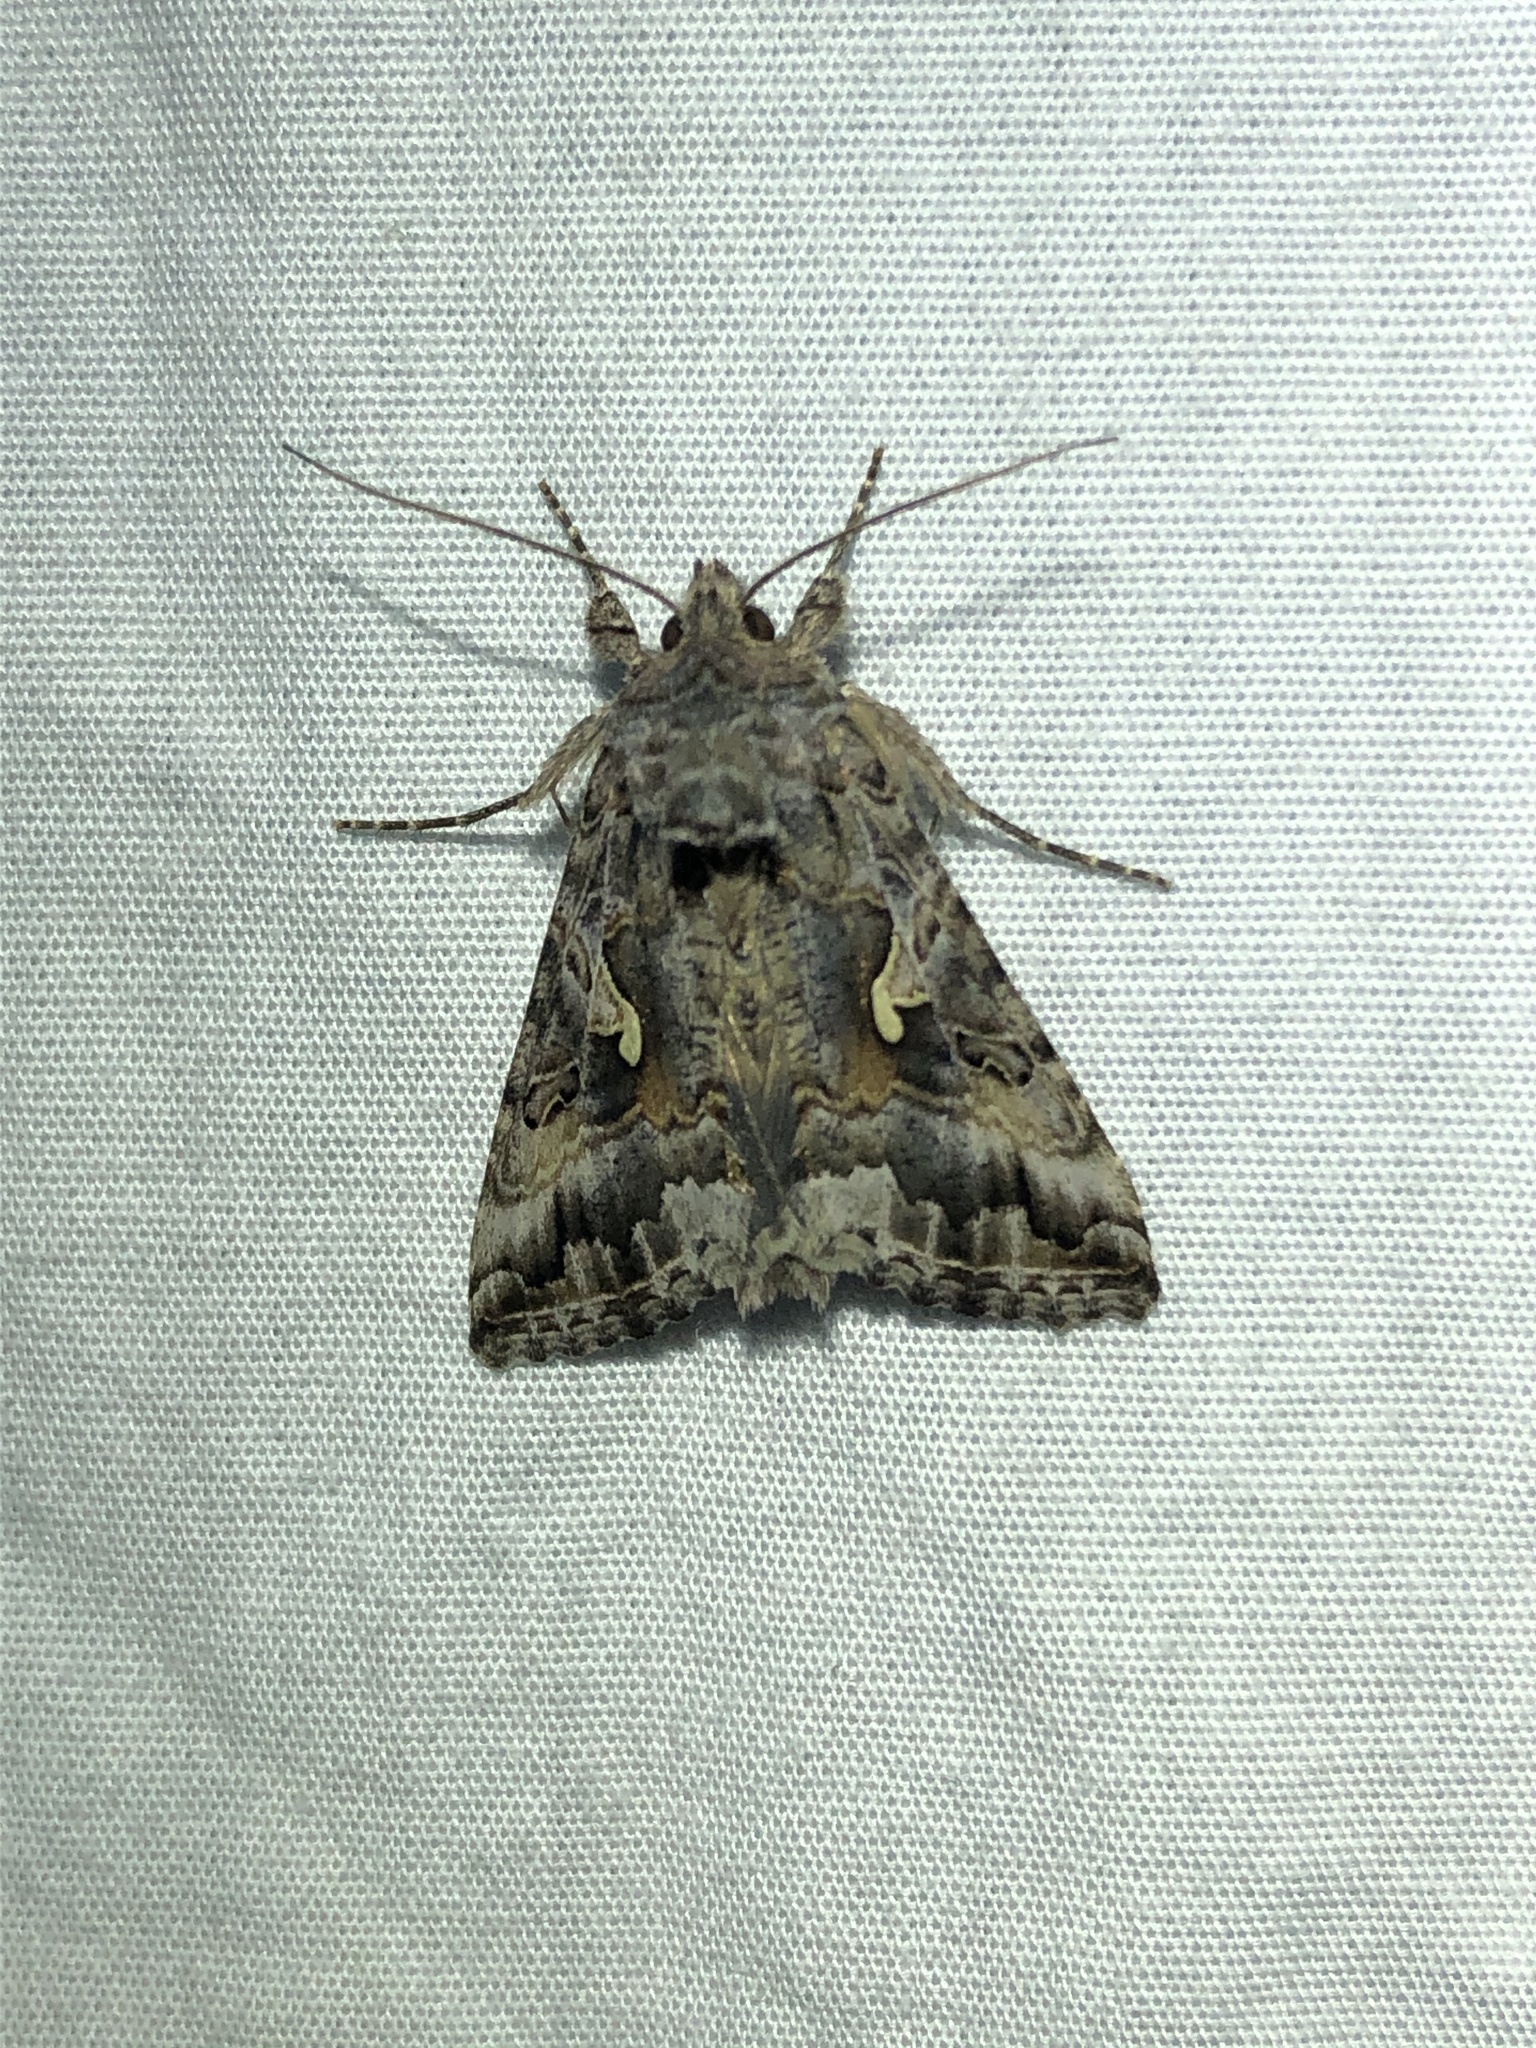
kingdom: Animalia
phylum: Arthropoda
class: Insecta
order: Lepidoptera
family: Noctuidae
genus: Autographa
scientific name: Autographa californica
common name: Alfalfa looper
